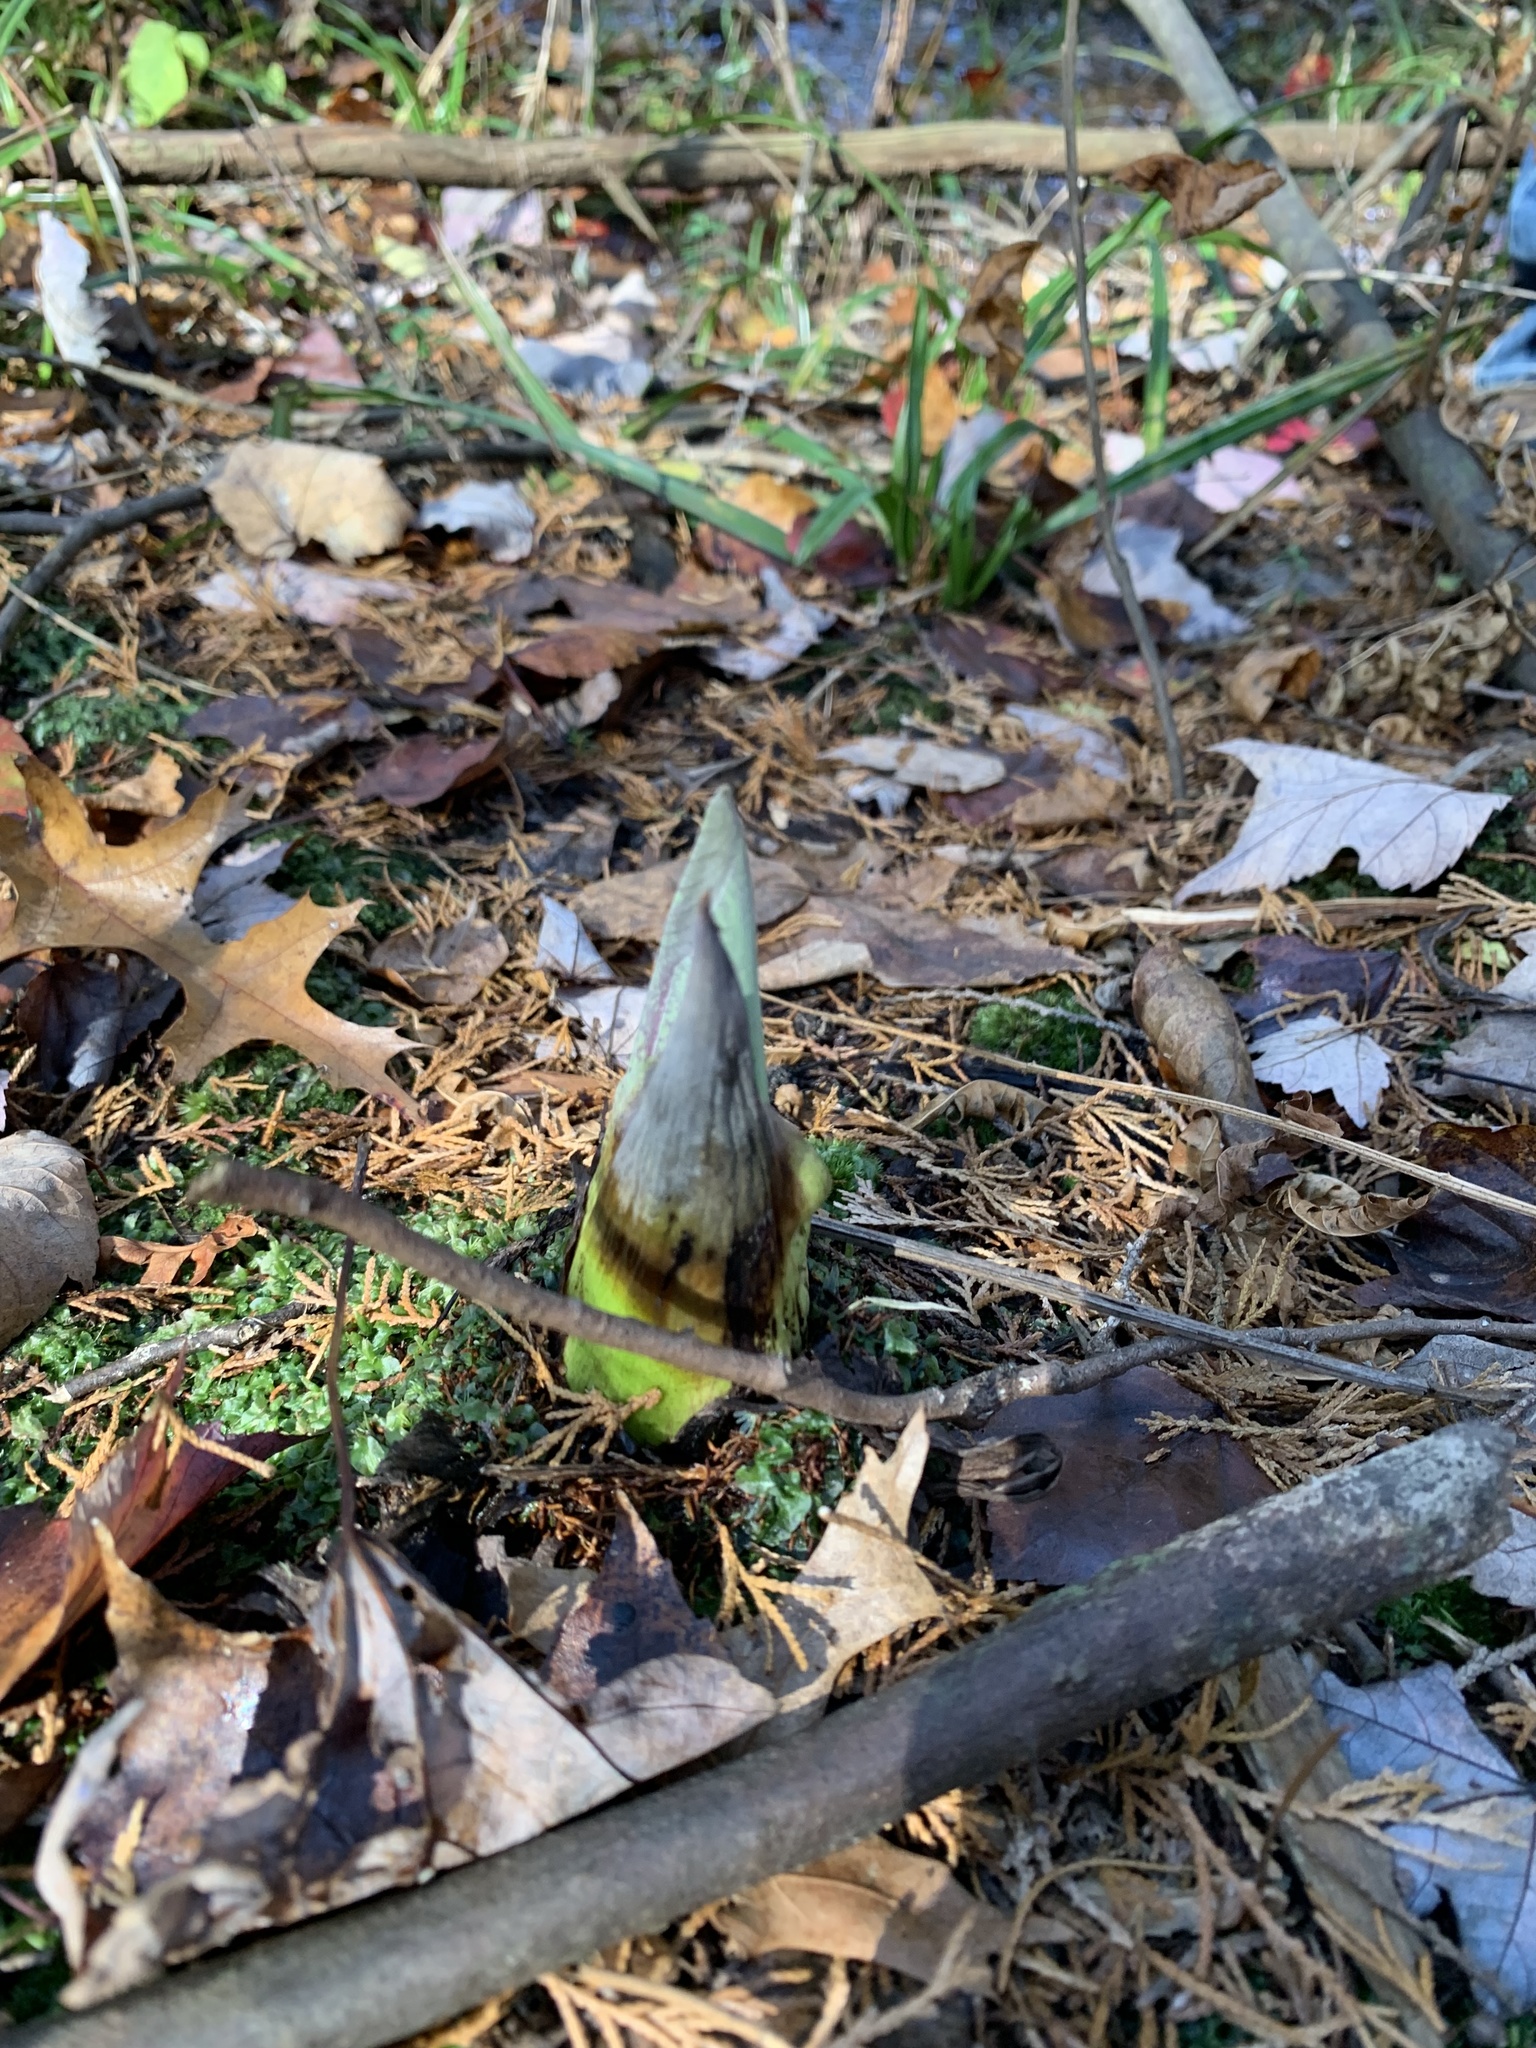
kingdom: Plantae
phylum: Tracheophyta
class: Liliopsida
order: Alismatales
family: Araceae
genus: Symplocarpus
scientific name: Symplocarpus foetidus
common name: Eastern skunk cabbage
